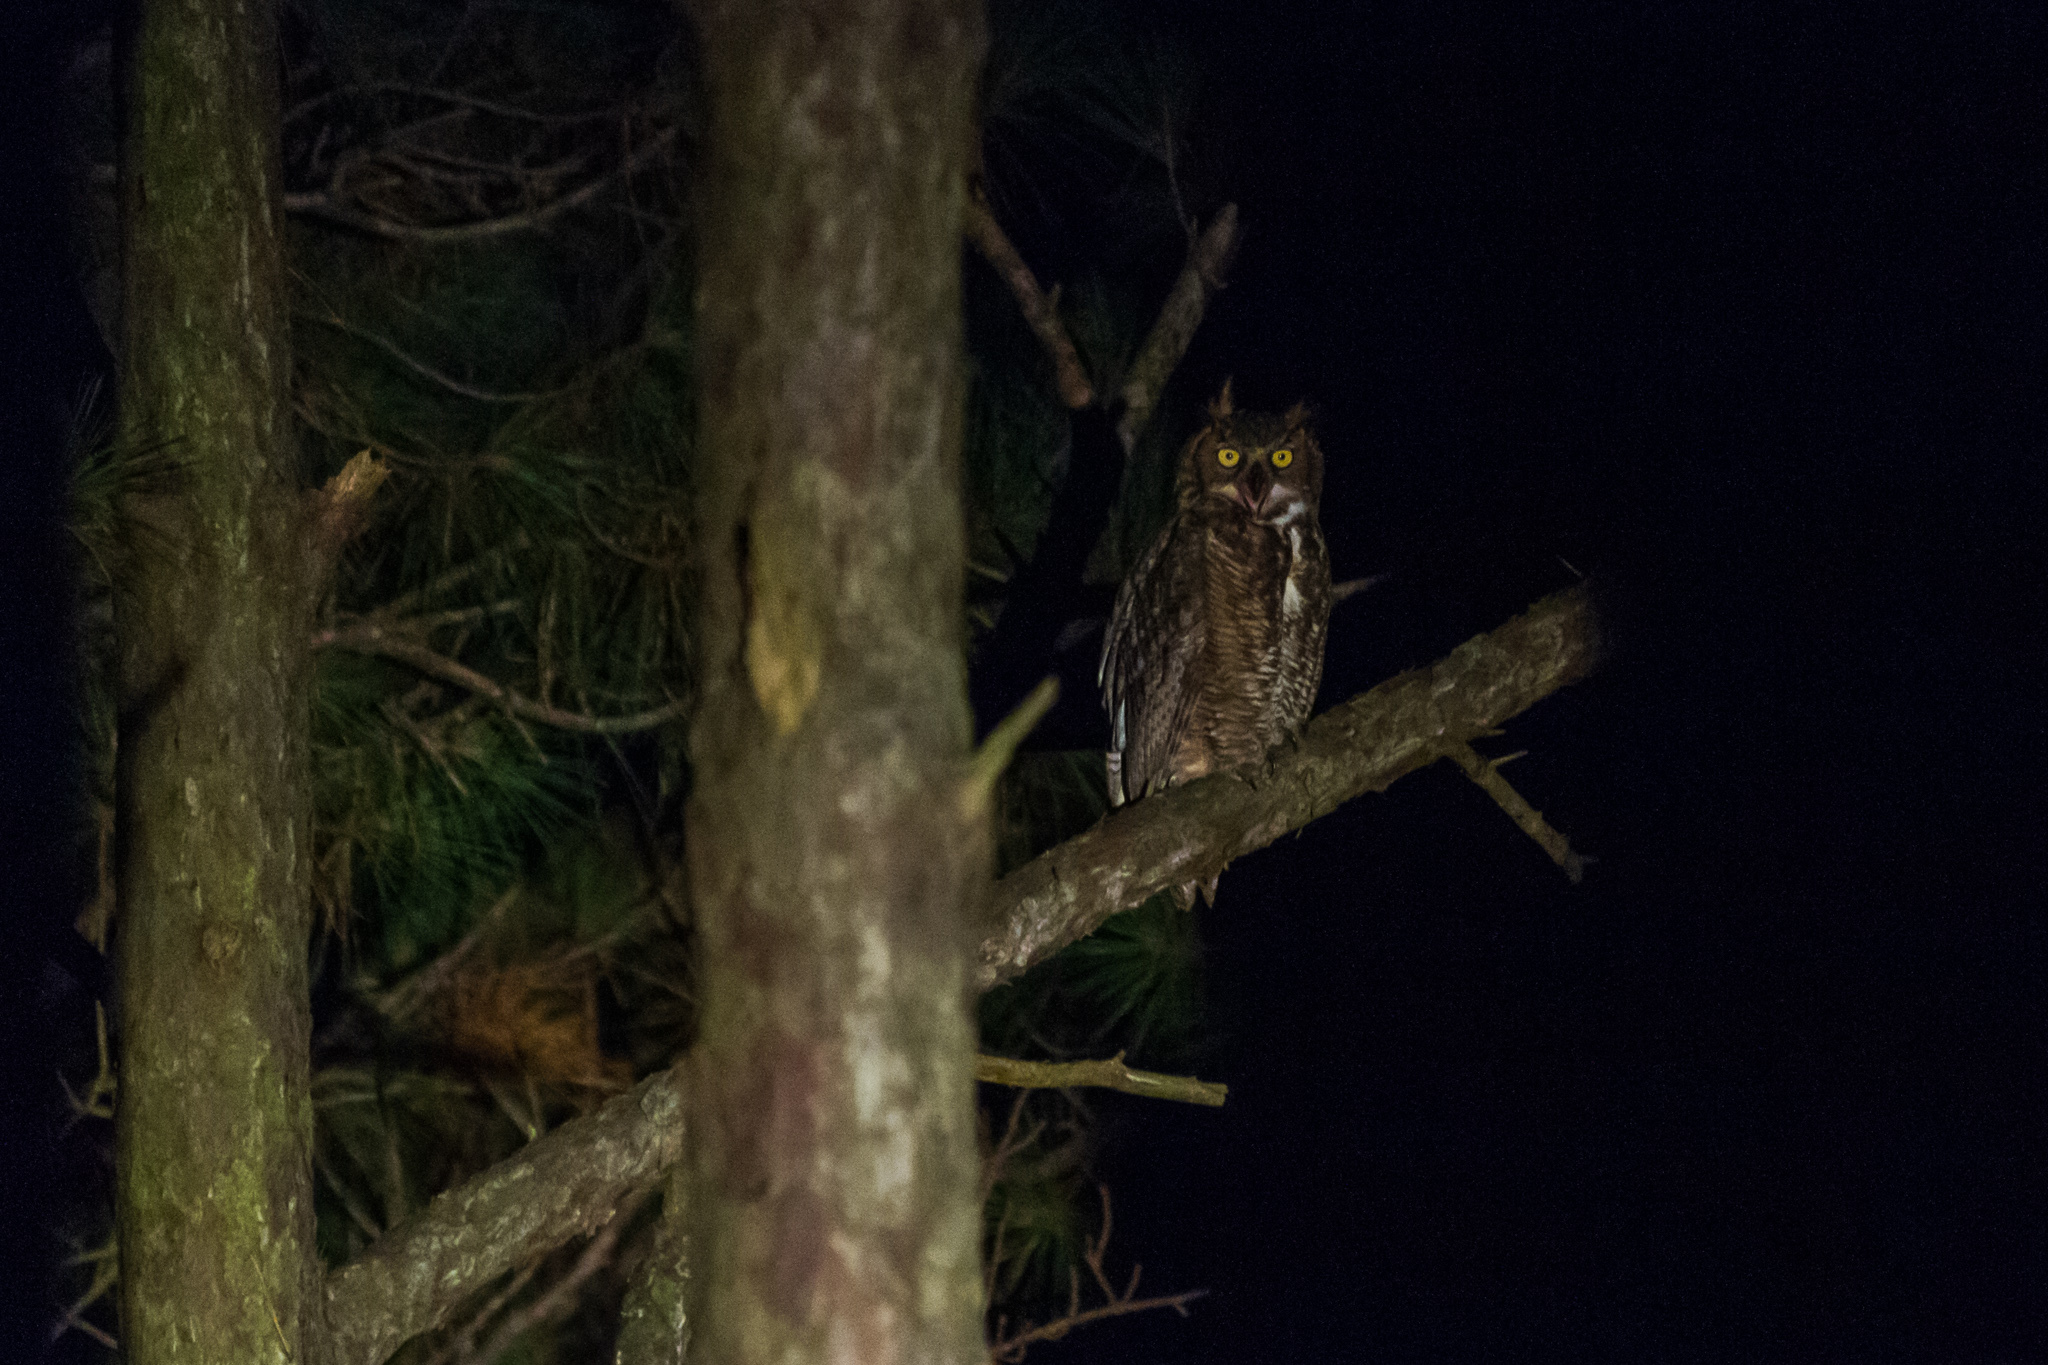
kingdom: Animalia
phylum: Chordata
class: Aves
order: Strigiformes
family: Strigidae
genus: Bubo
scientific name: Bubo virginianus
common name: Great horned owl
